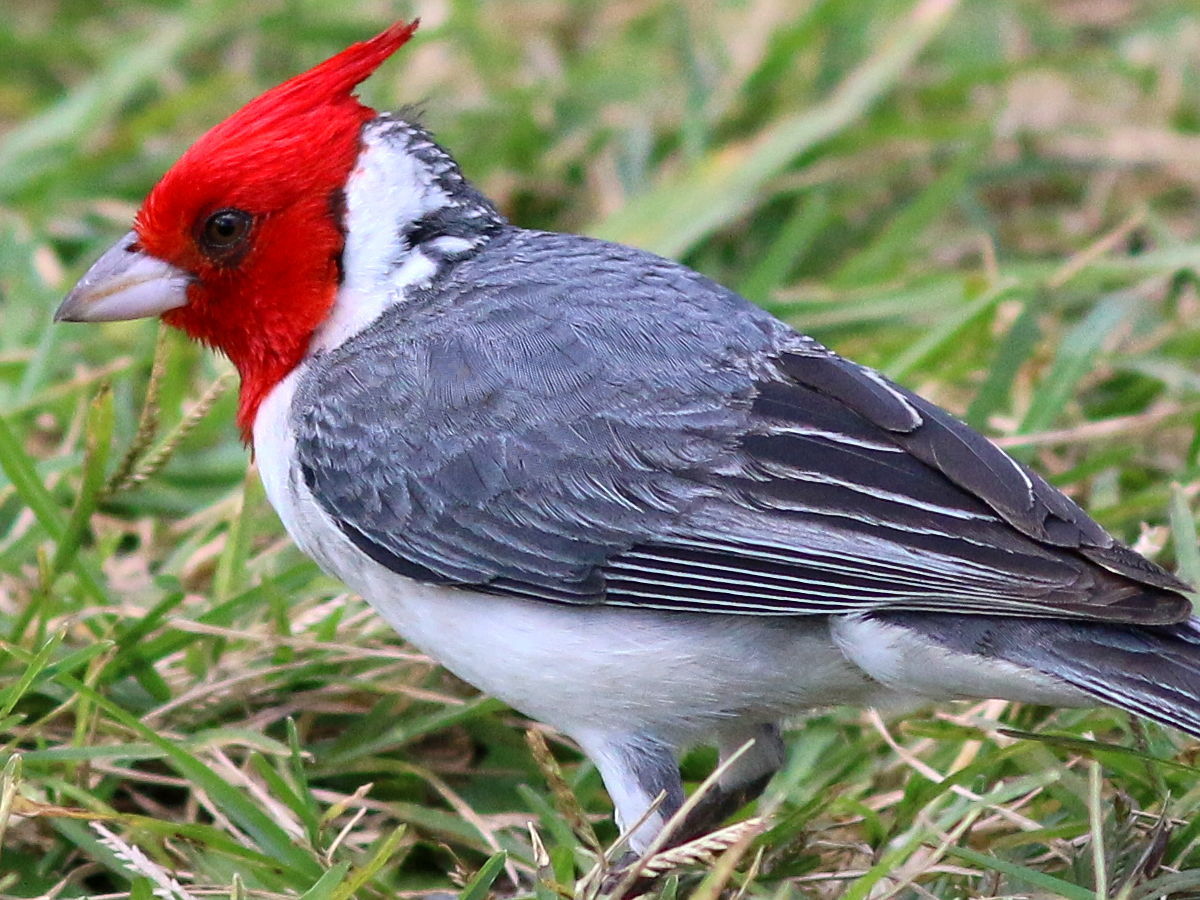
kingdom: Animalia
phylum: Chordata
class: Aves
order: Passeriformes
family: Thraupidae
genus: Paroaria
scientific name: Paroaria coronata
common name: Red-crested cardinal
